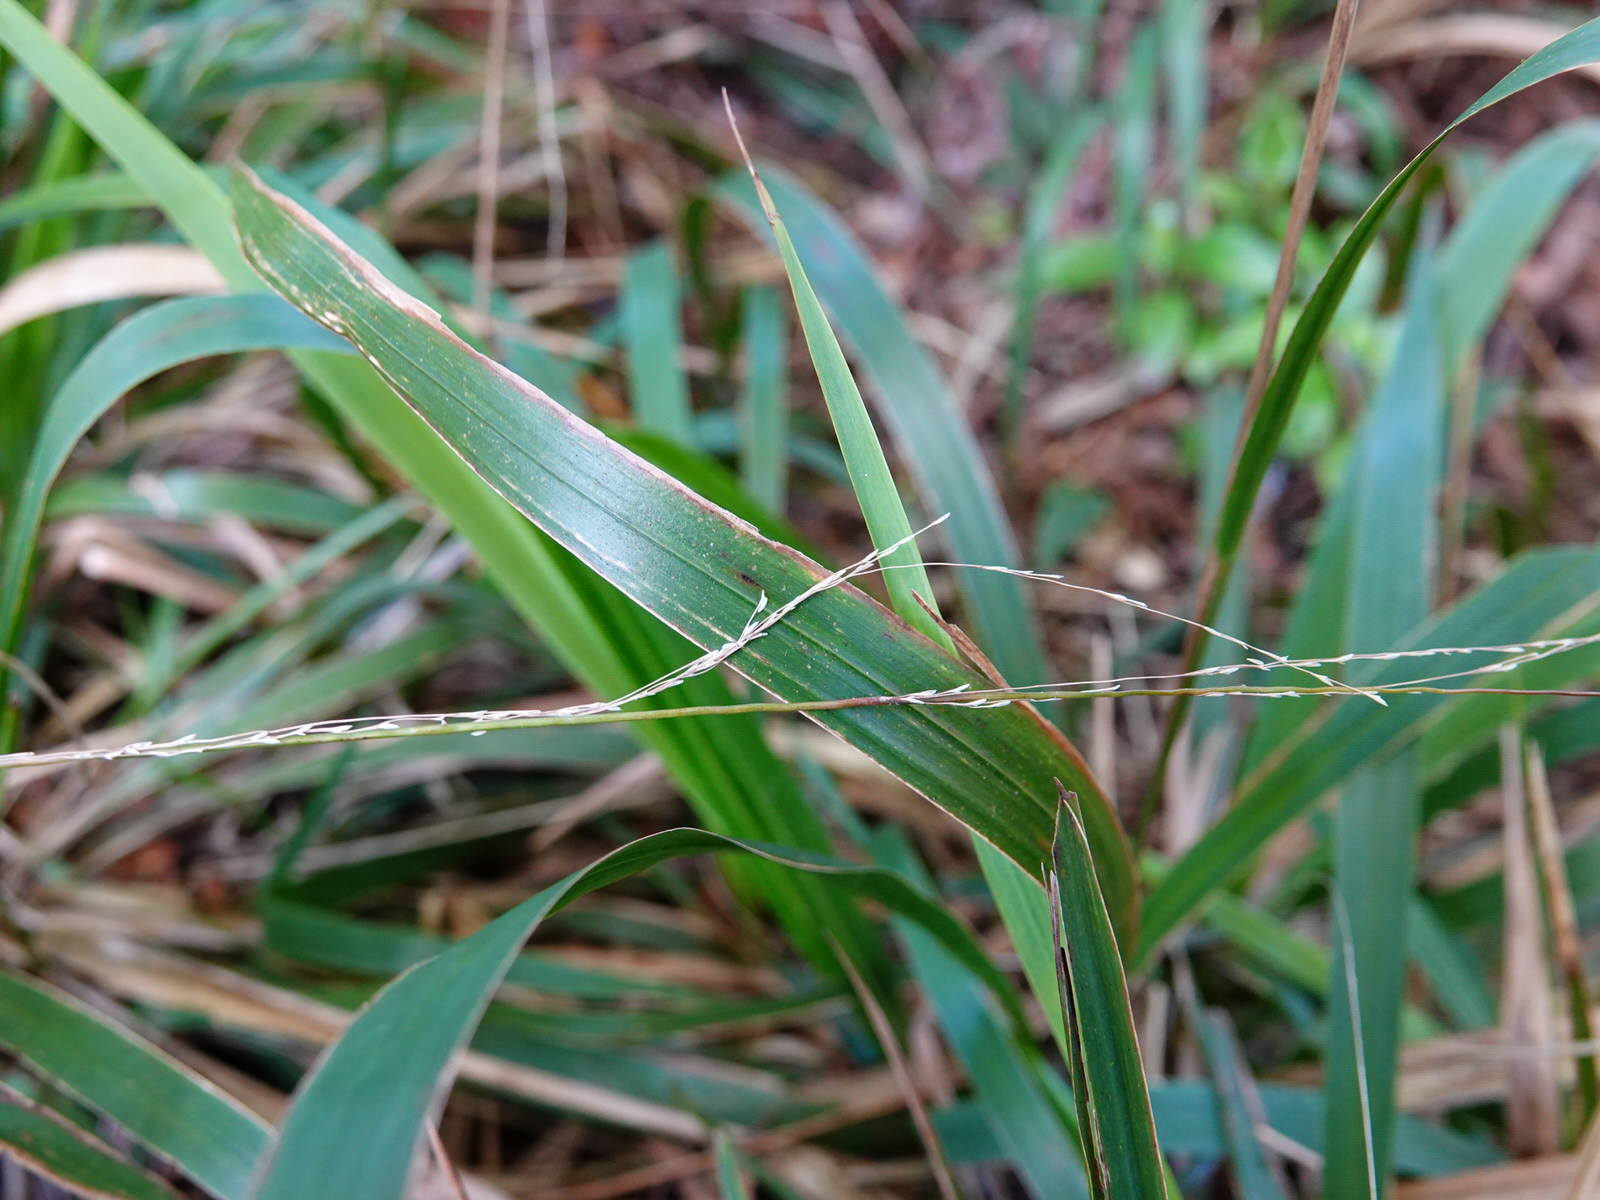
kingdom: Plantae
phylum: Tracheophyta
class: Liliopsida
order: Poales
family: Poaceae
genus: Ehrharta
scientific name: Ehrharta diplax
